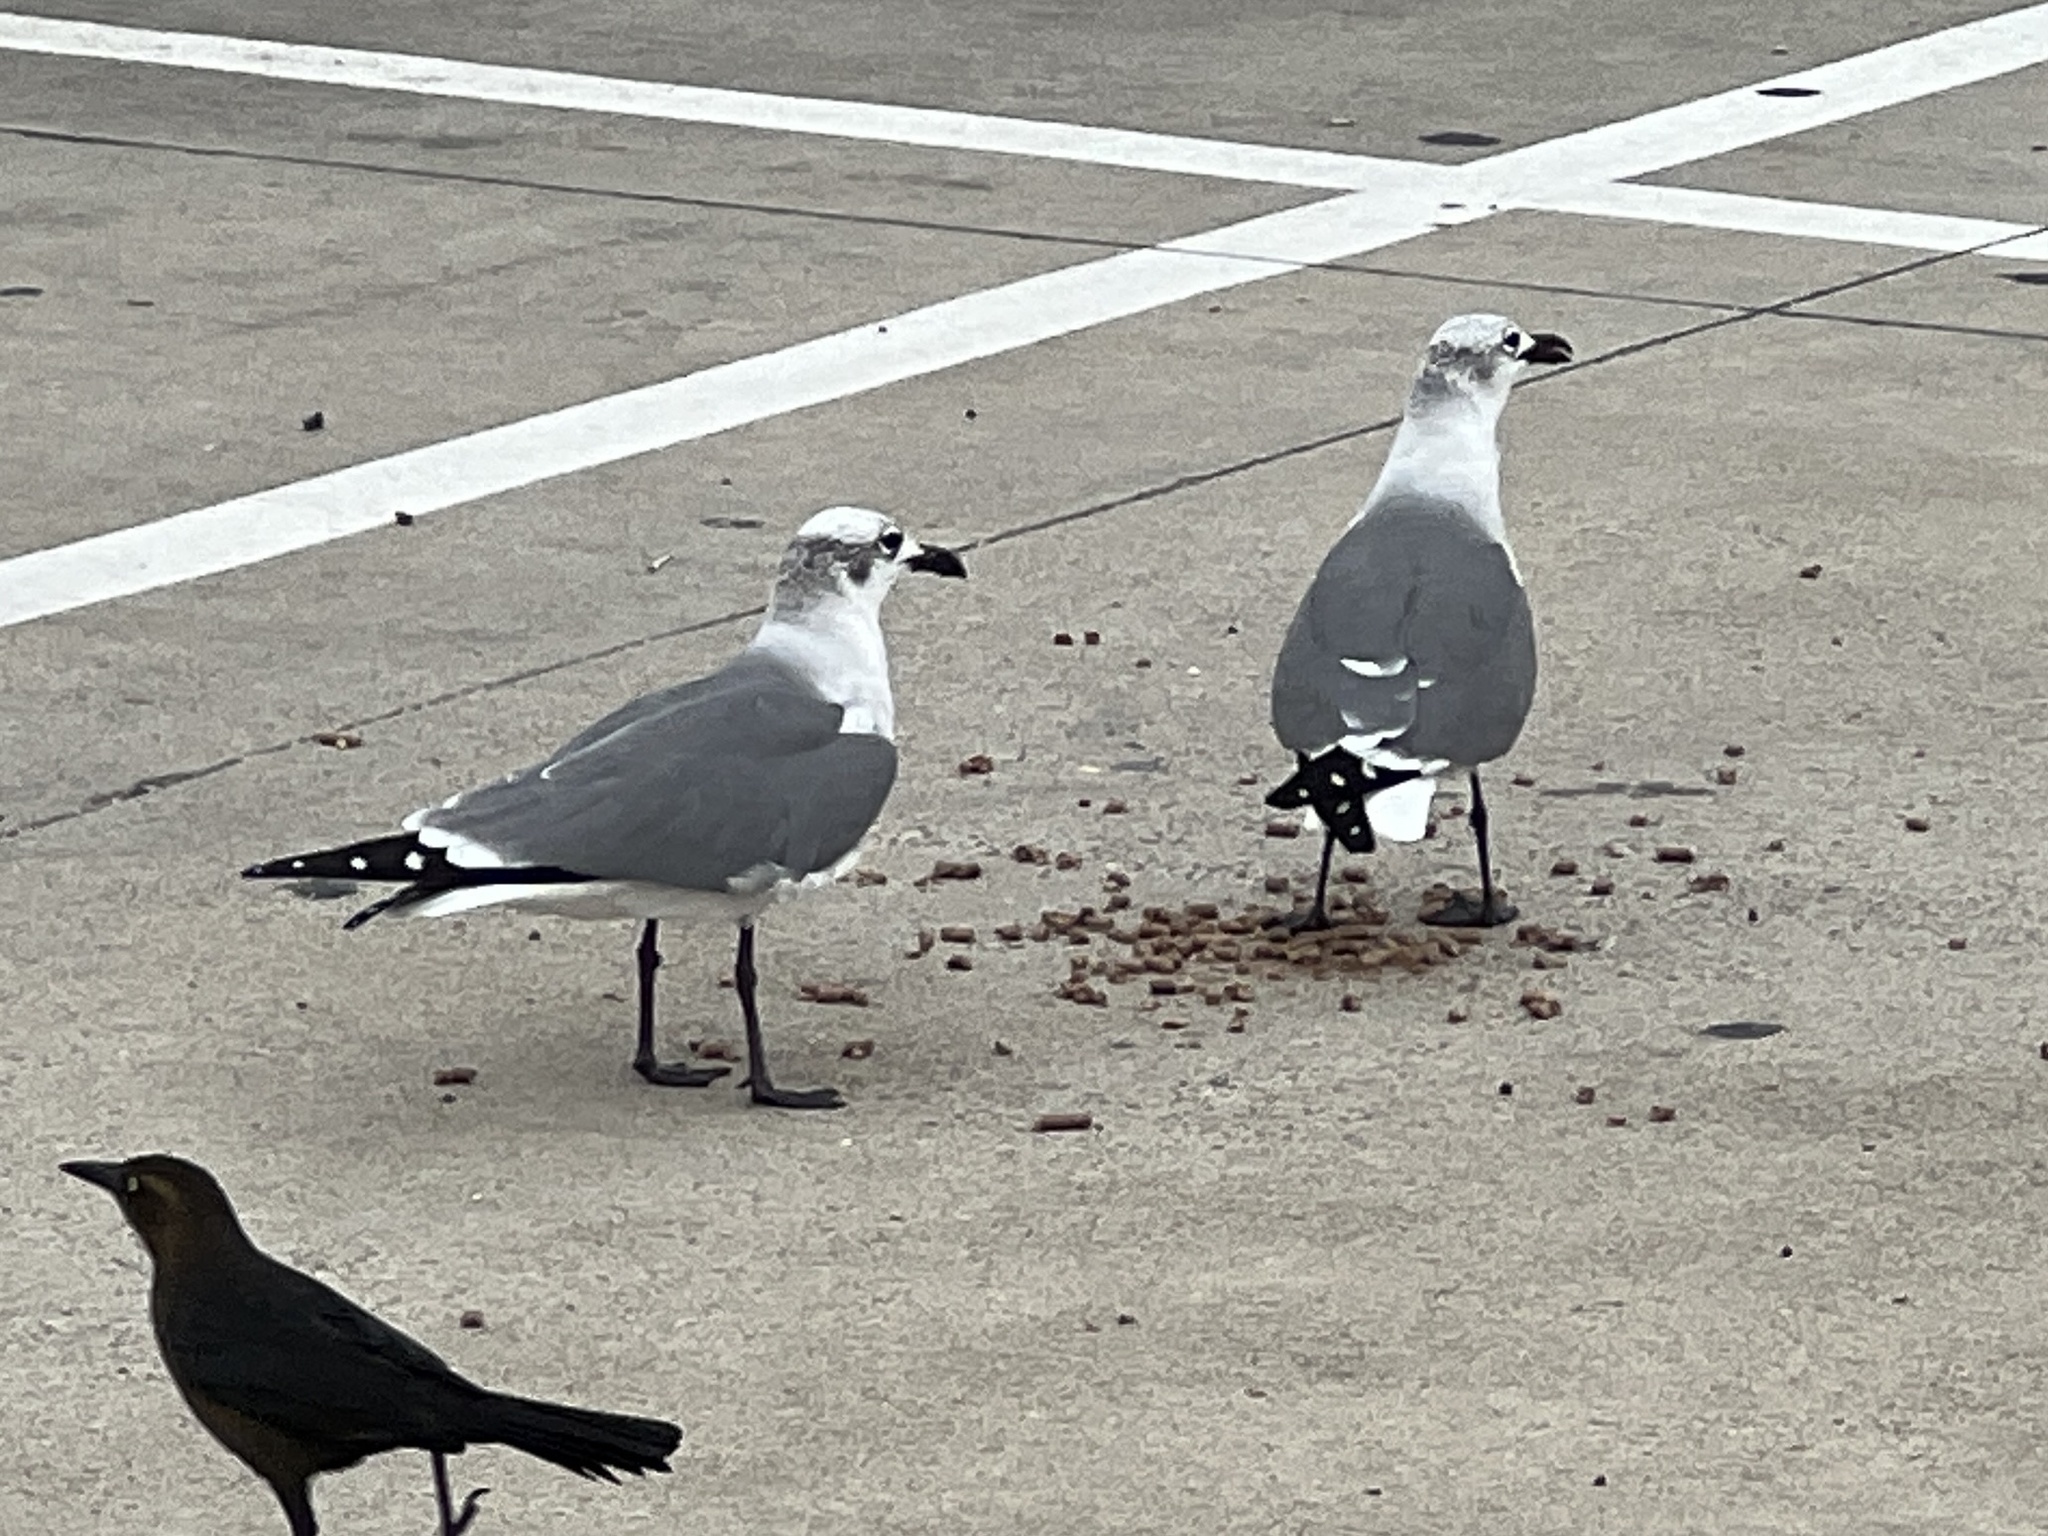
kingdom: Animalia
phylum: Chordata
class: Aves
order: Charadriiformes
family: Laridae
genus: Leucophaeus
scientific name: Leucophaeus atricilla
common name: Laughing gull
